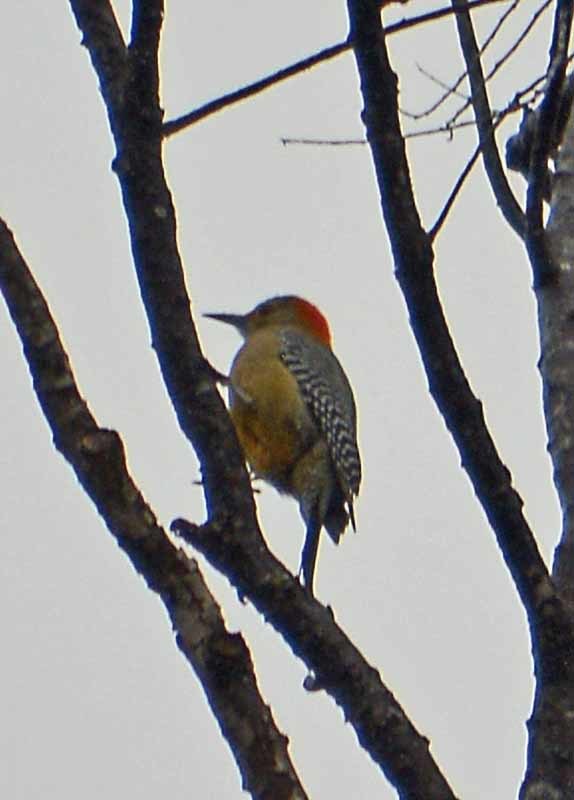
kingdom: Animalia
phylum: Chordata
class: Aves
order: Piciformes
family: Picidae
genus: Melanerpes
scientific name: Melanerpes aurifrons
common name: Golden-fronted woodpecker
